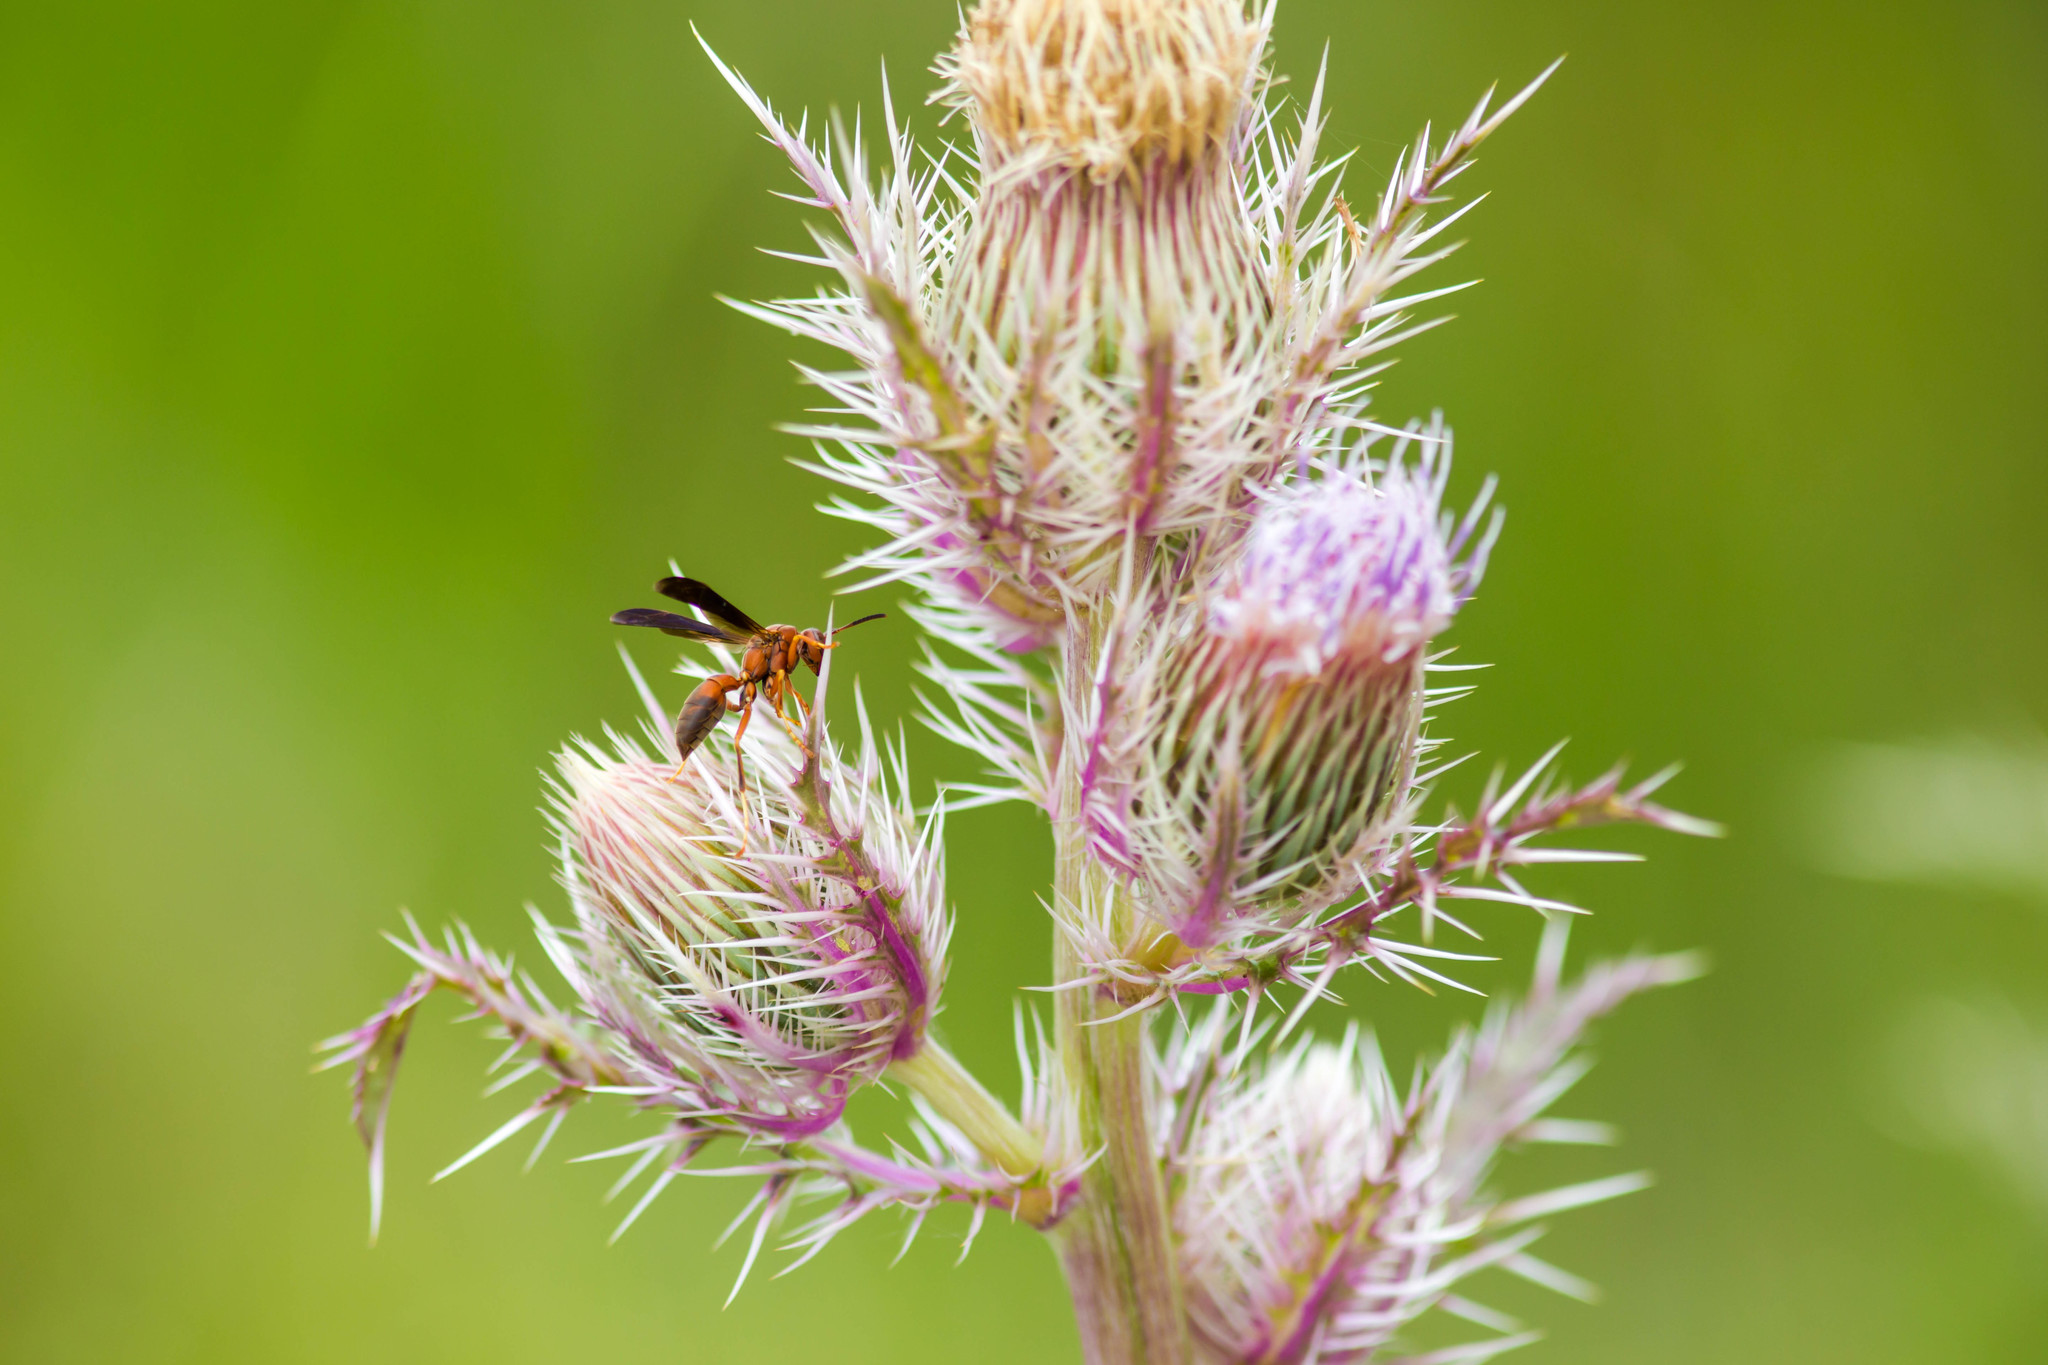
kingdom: Animalia
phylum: Arthropoda
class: Insecta
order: Hymenoptera
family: Eumenidae
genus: Polistes
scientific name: Polistes fuscatus
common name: Dark paper wasp
